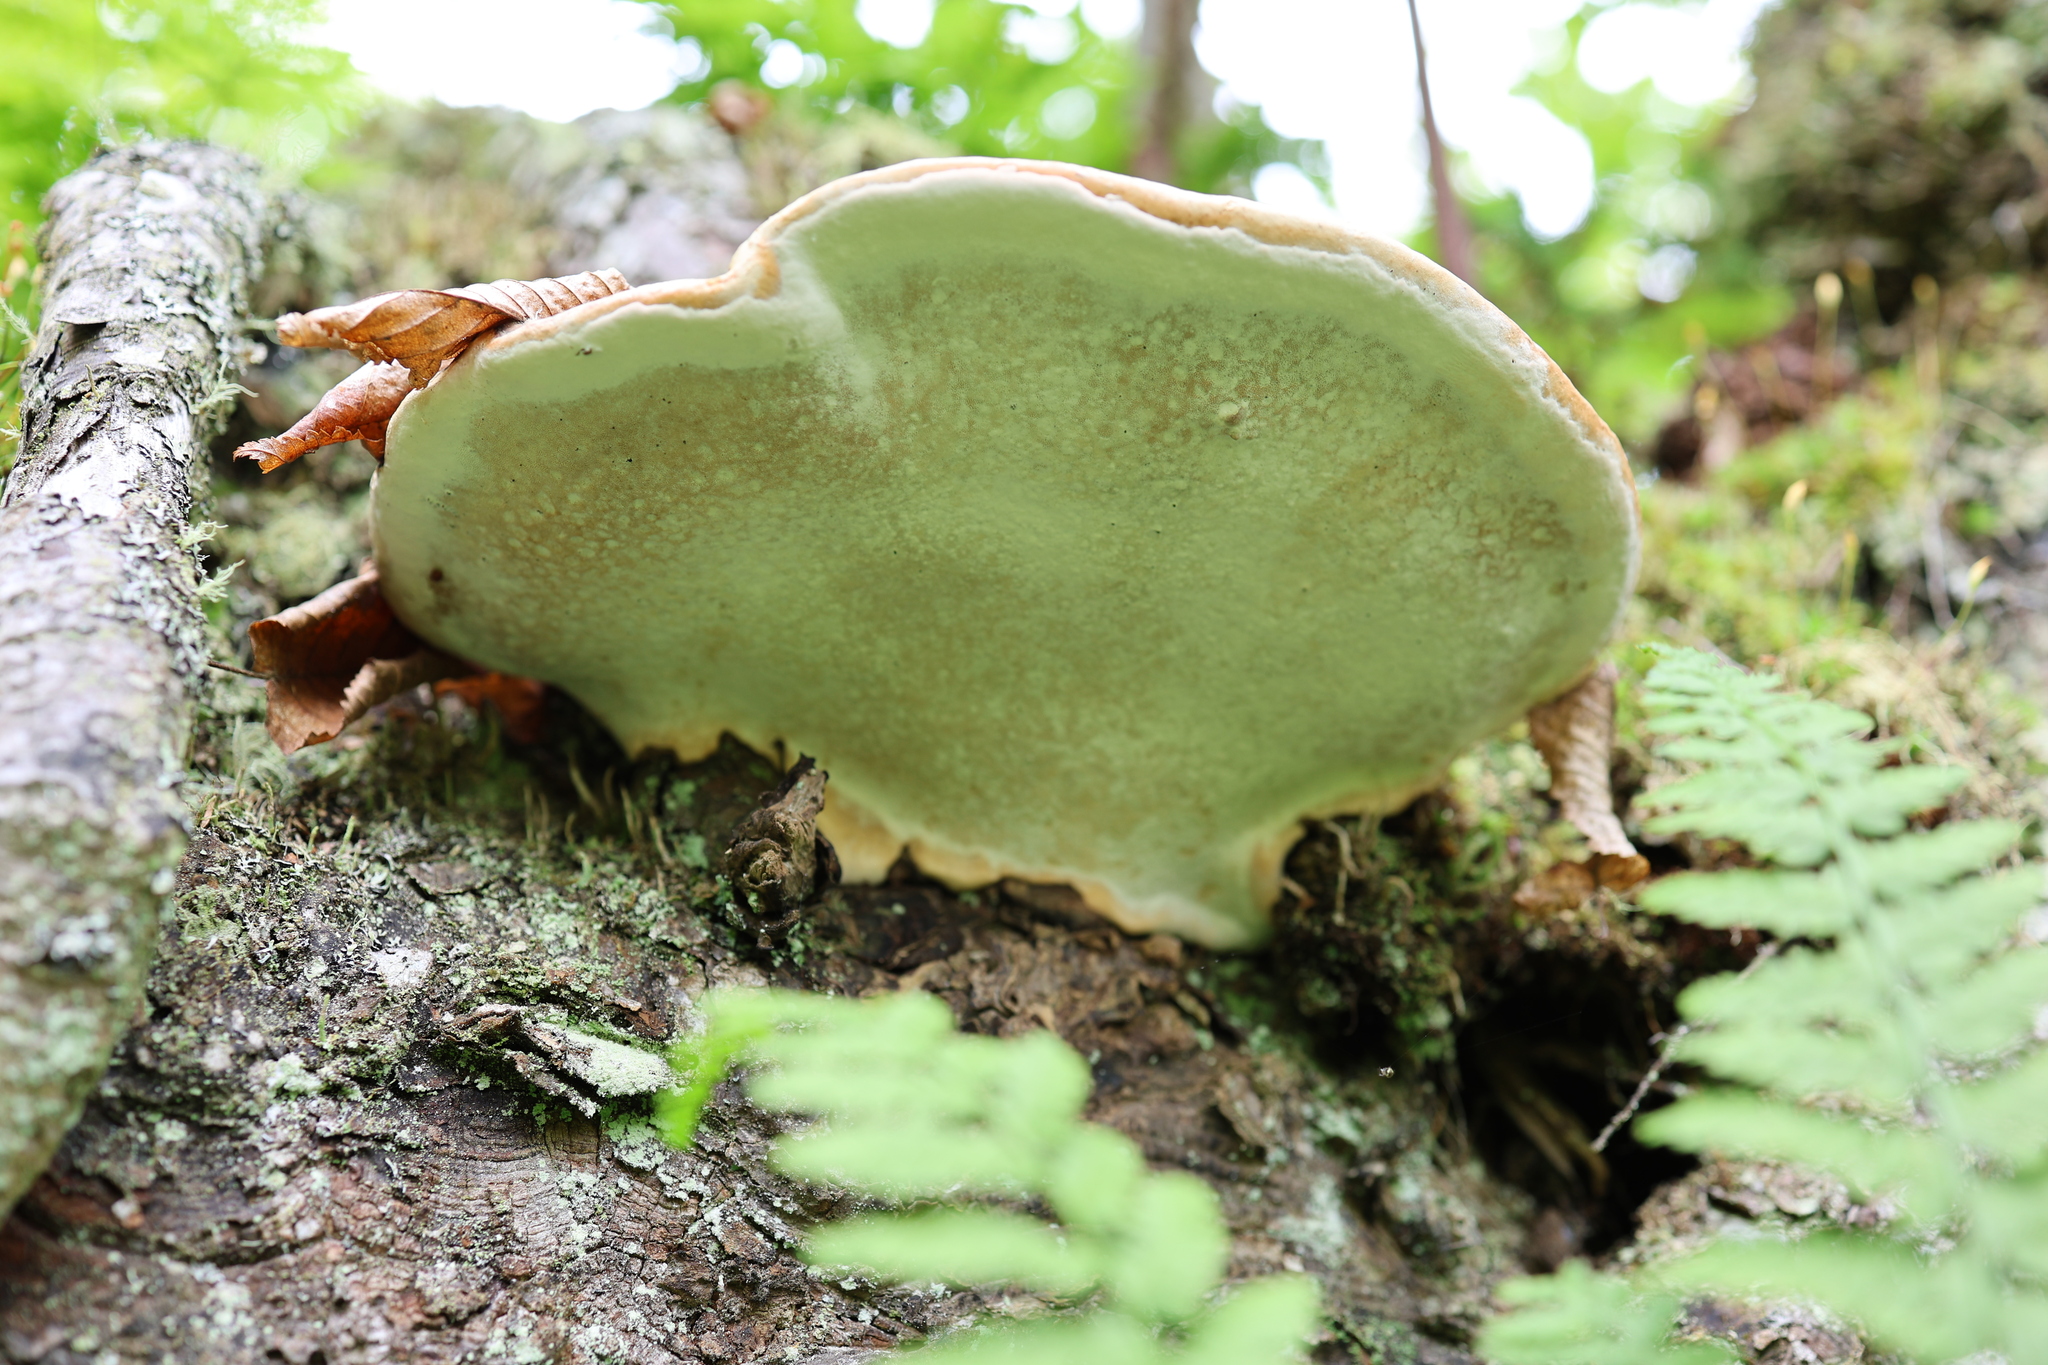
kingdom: Fungi
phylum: Basidiomycota
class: Agaricomycetes
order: Polyporales
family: Fomitopsidaceae
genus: Fomitopsis
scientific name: Fomitopsis mounceae
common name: Northern red belt
